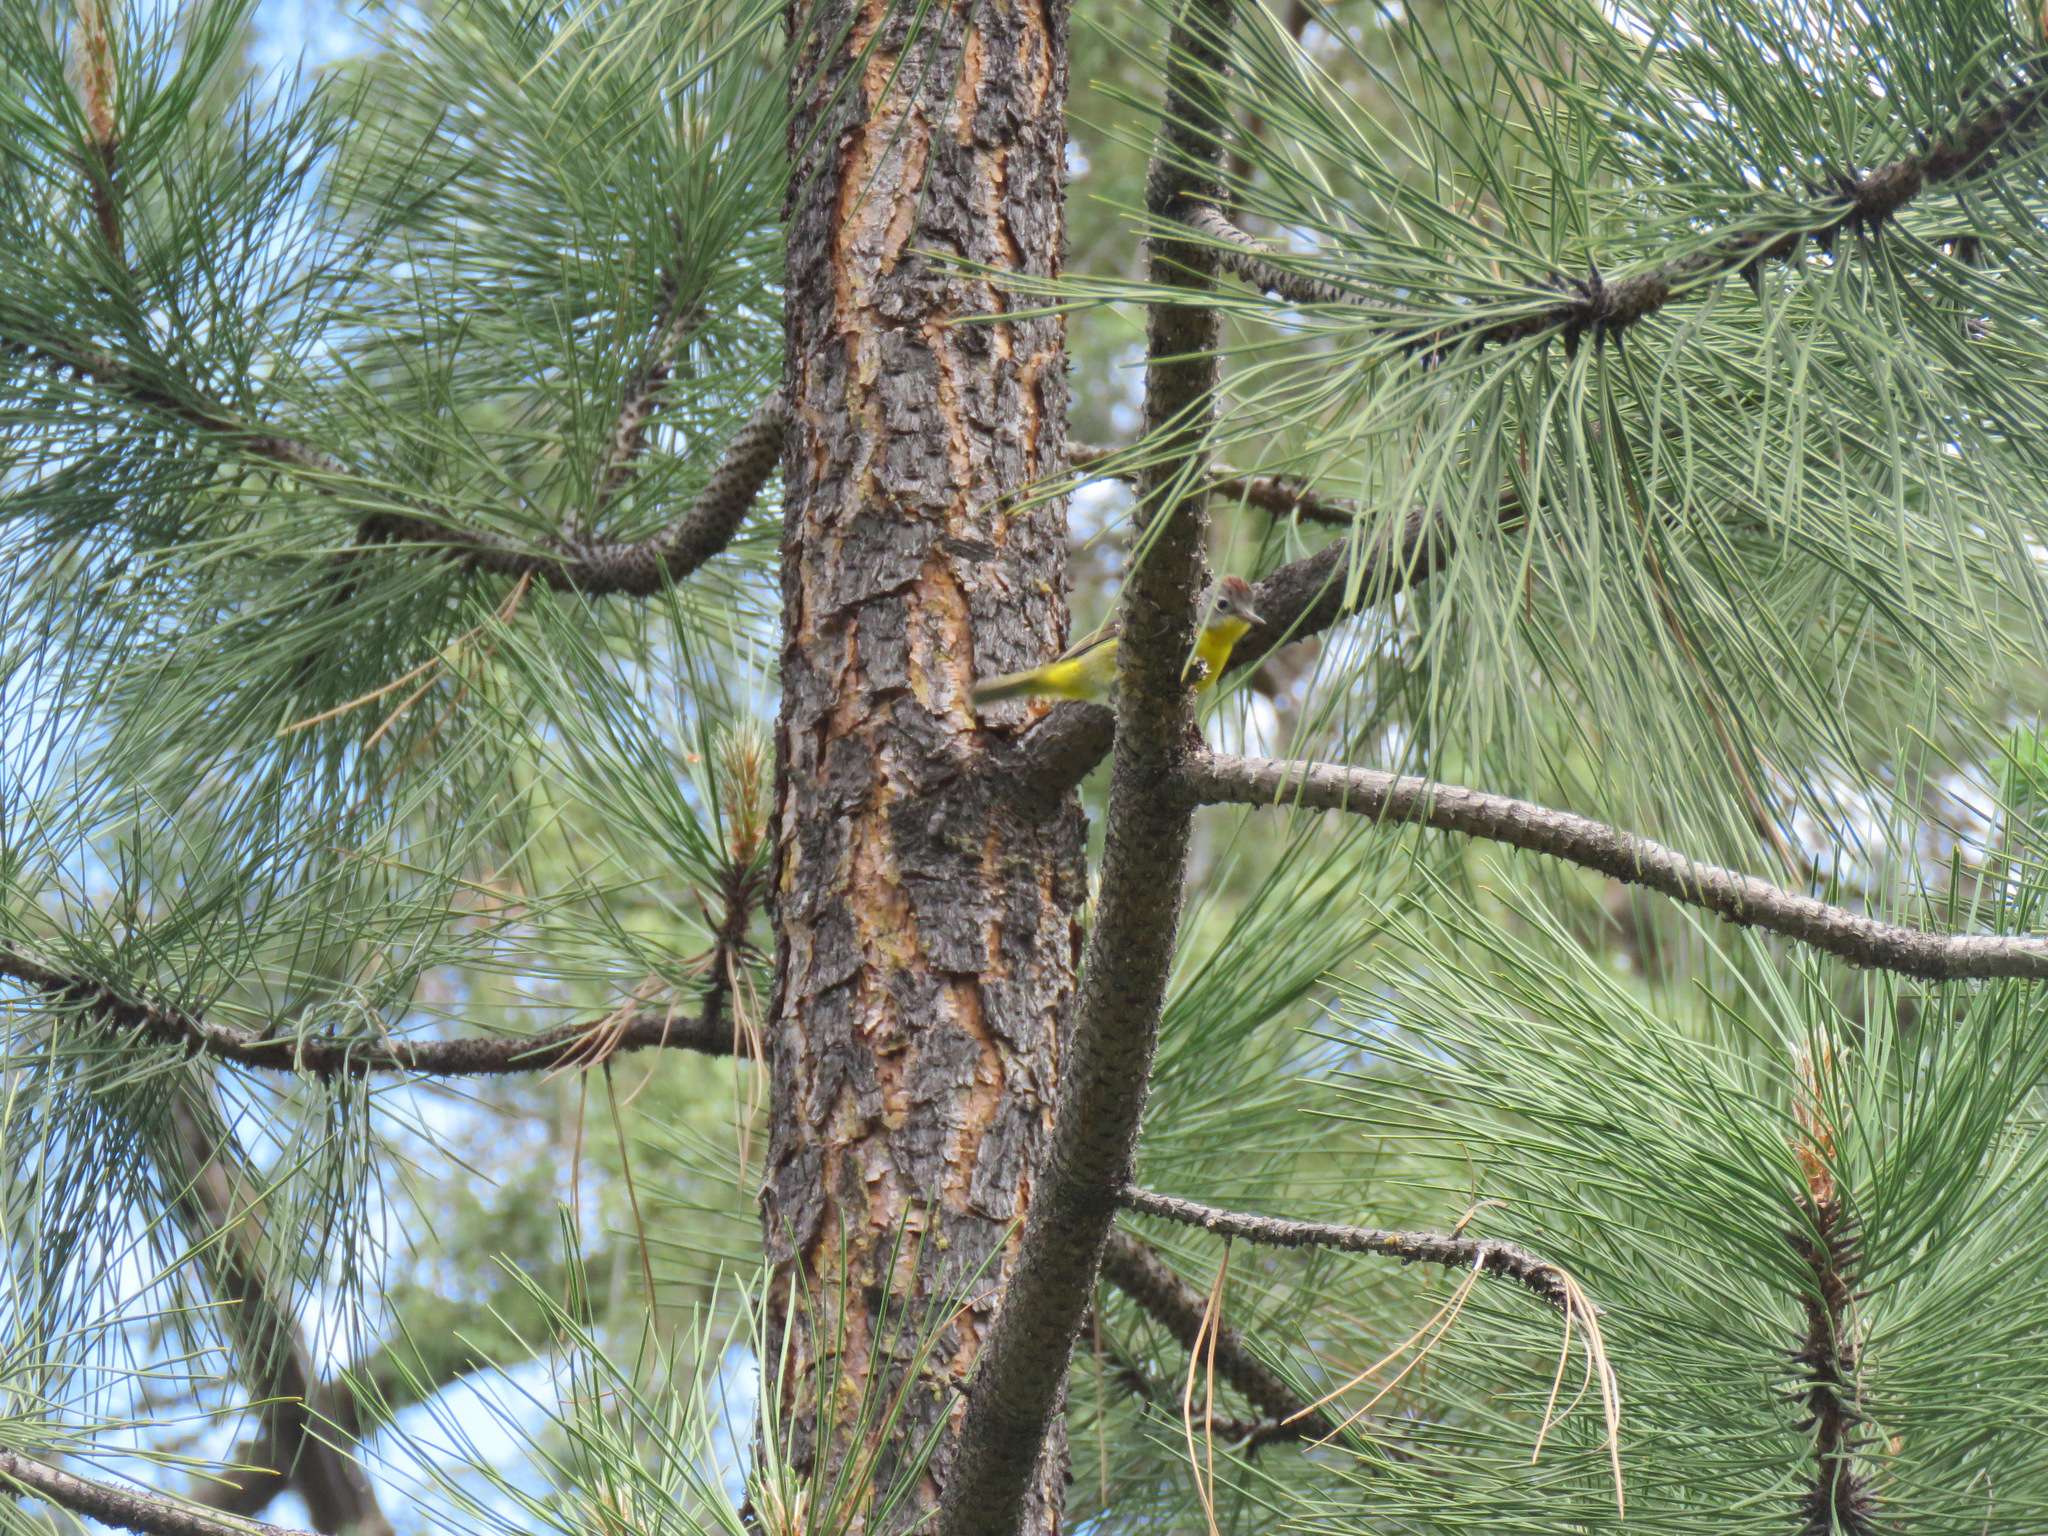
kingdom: Animalia
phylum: Chordata
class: Aves
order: Passeriformes
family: Parulidae
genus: Leiothlypis
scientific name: Leiothlypis ruficapilla
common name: Nashville warbler
